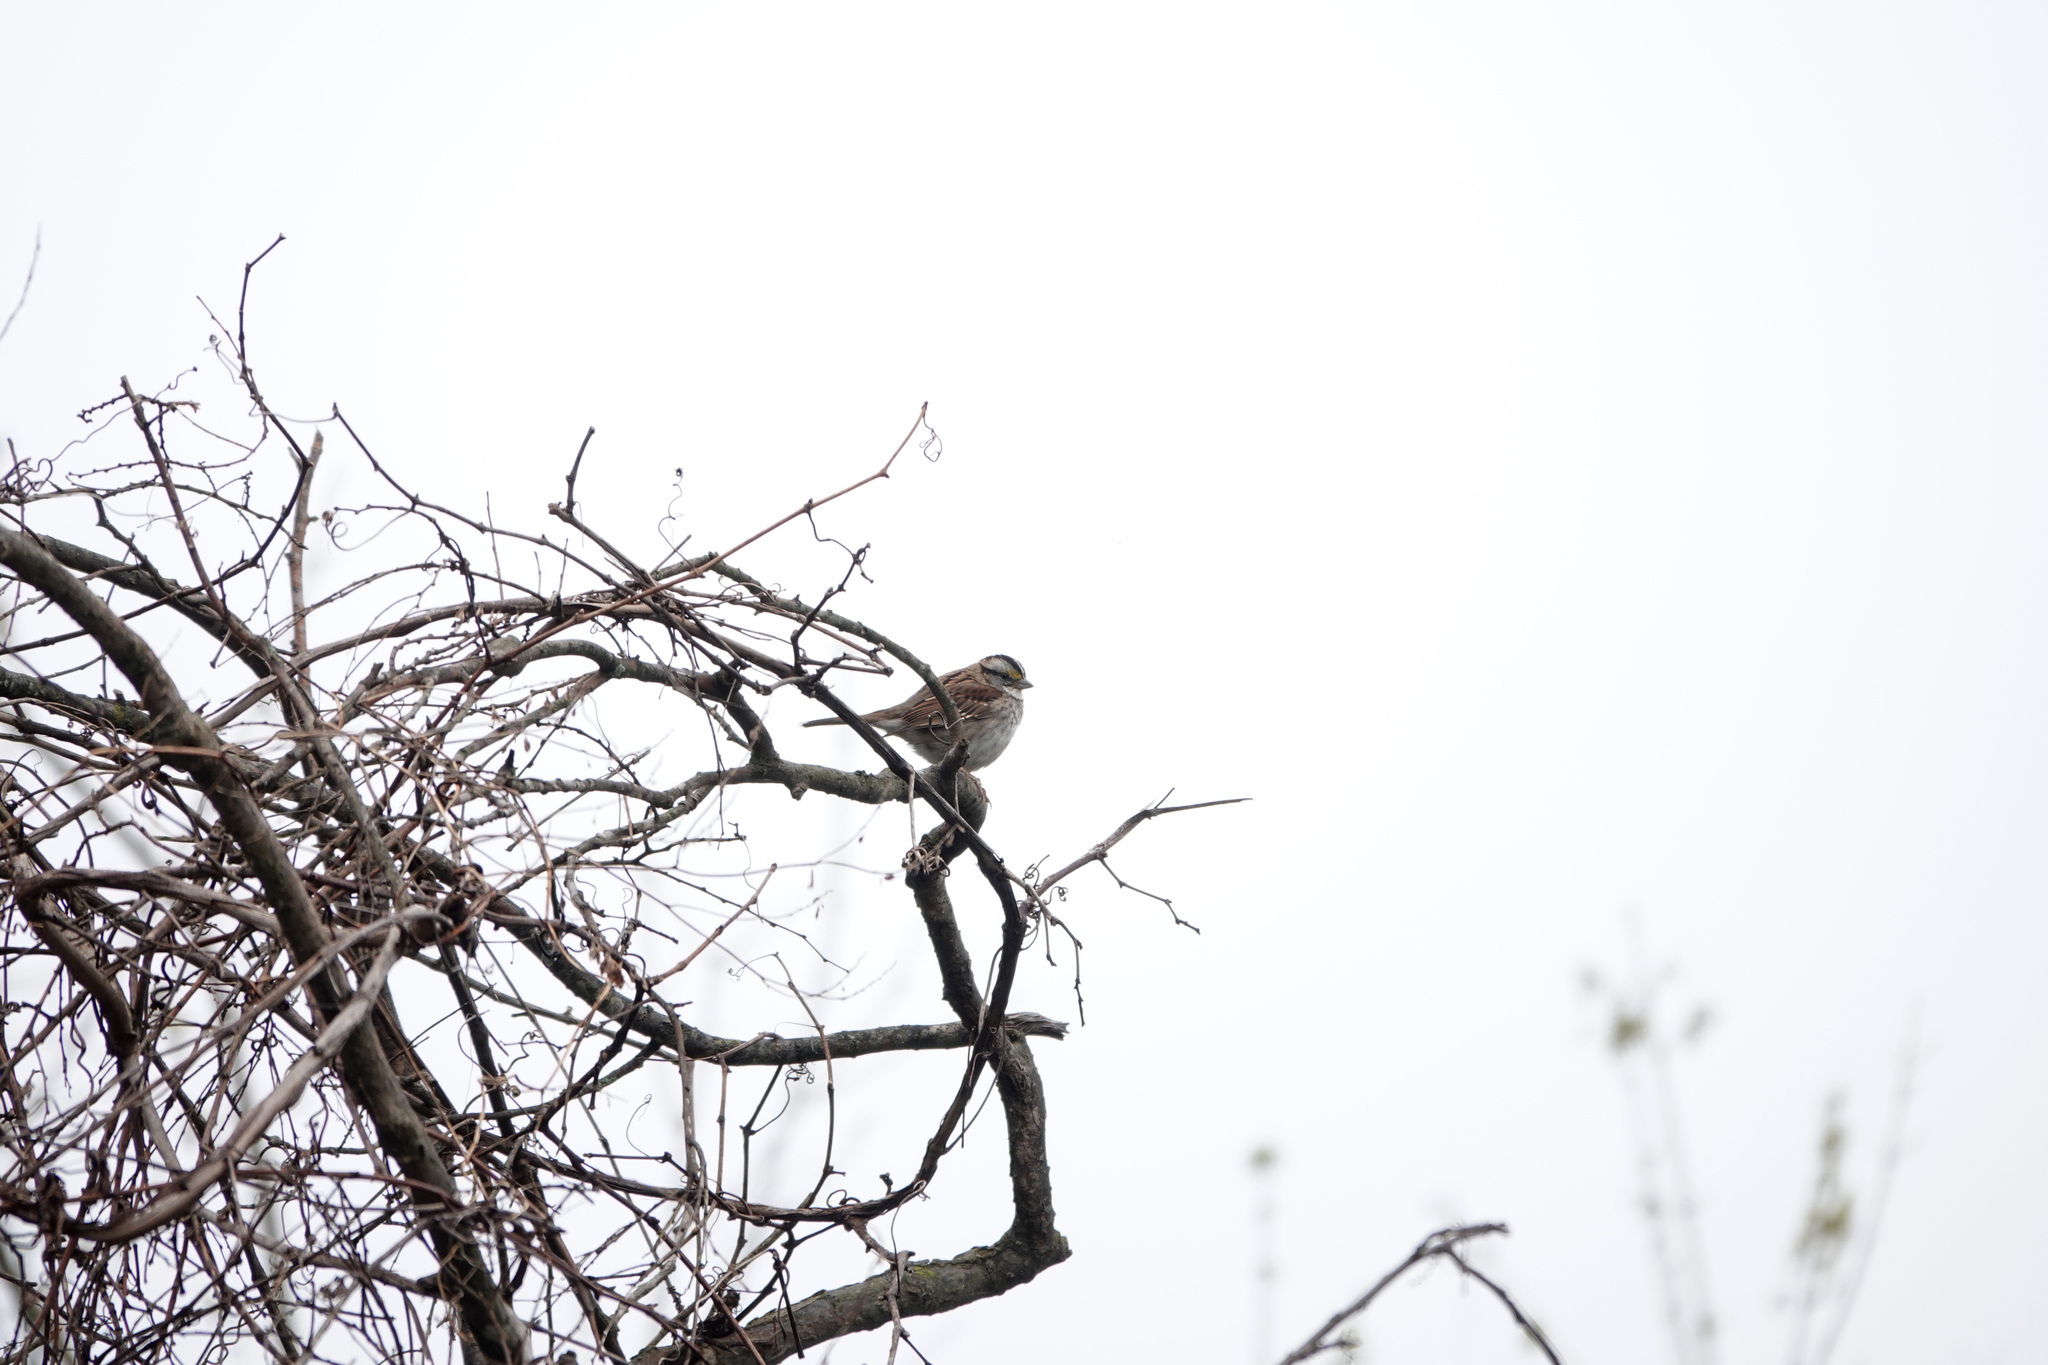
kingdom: Animalia
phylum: Chordata
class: Aves
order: Passeriformes
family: Passerellidae
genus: Zonotrichia
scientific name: Zonotrichia albicollis
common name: White-throated sparrow
